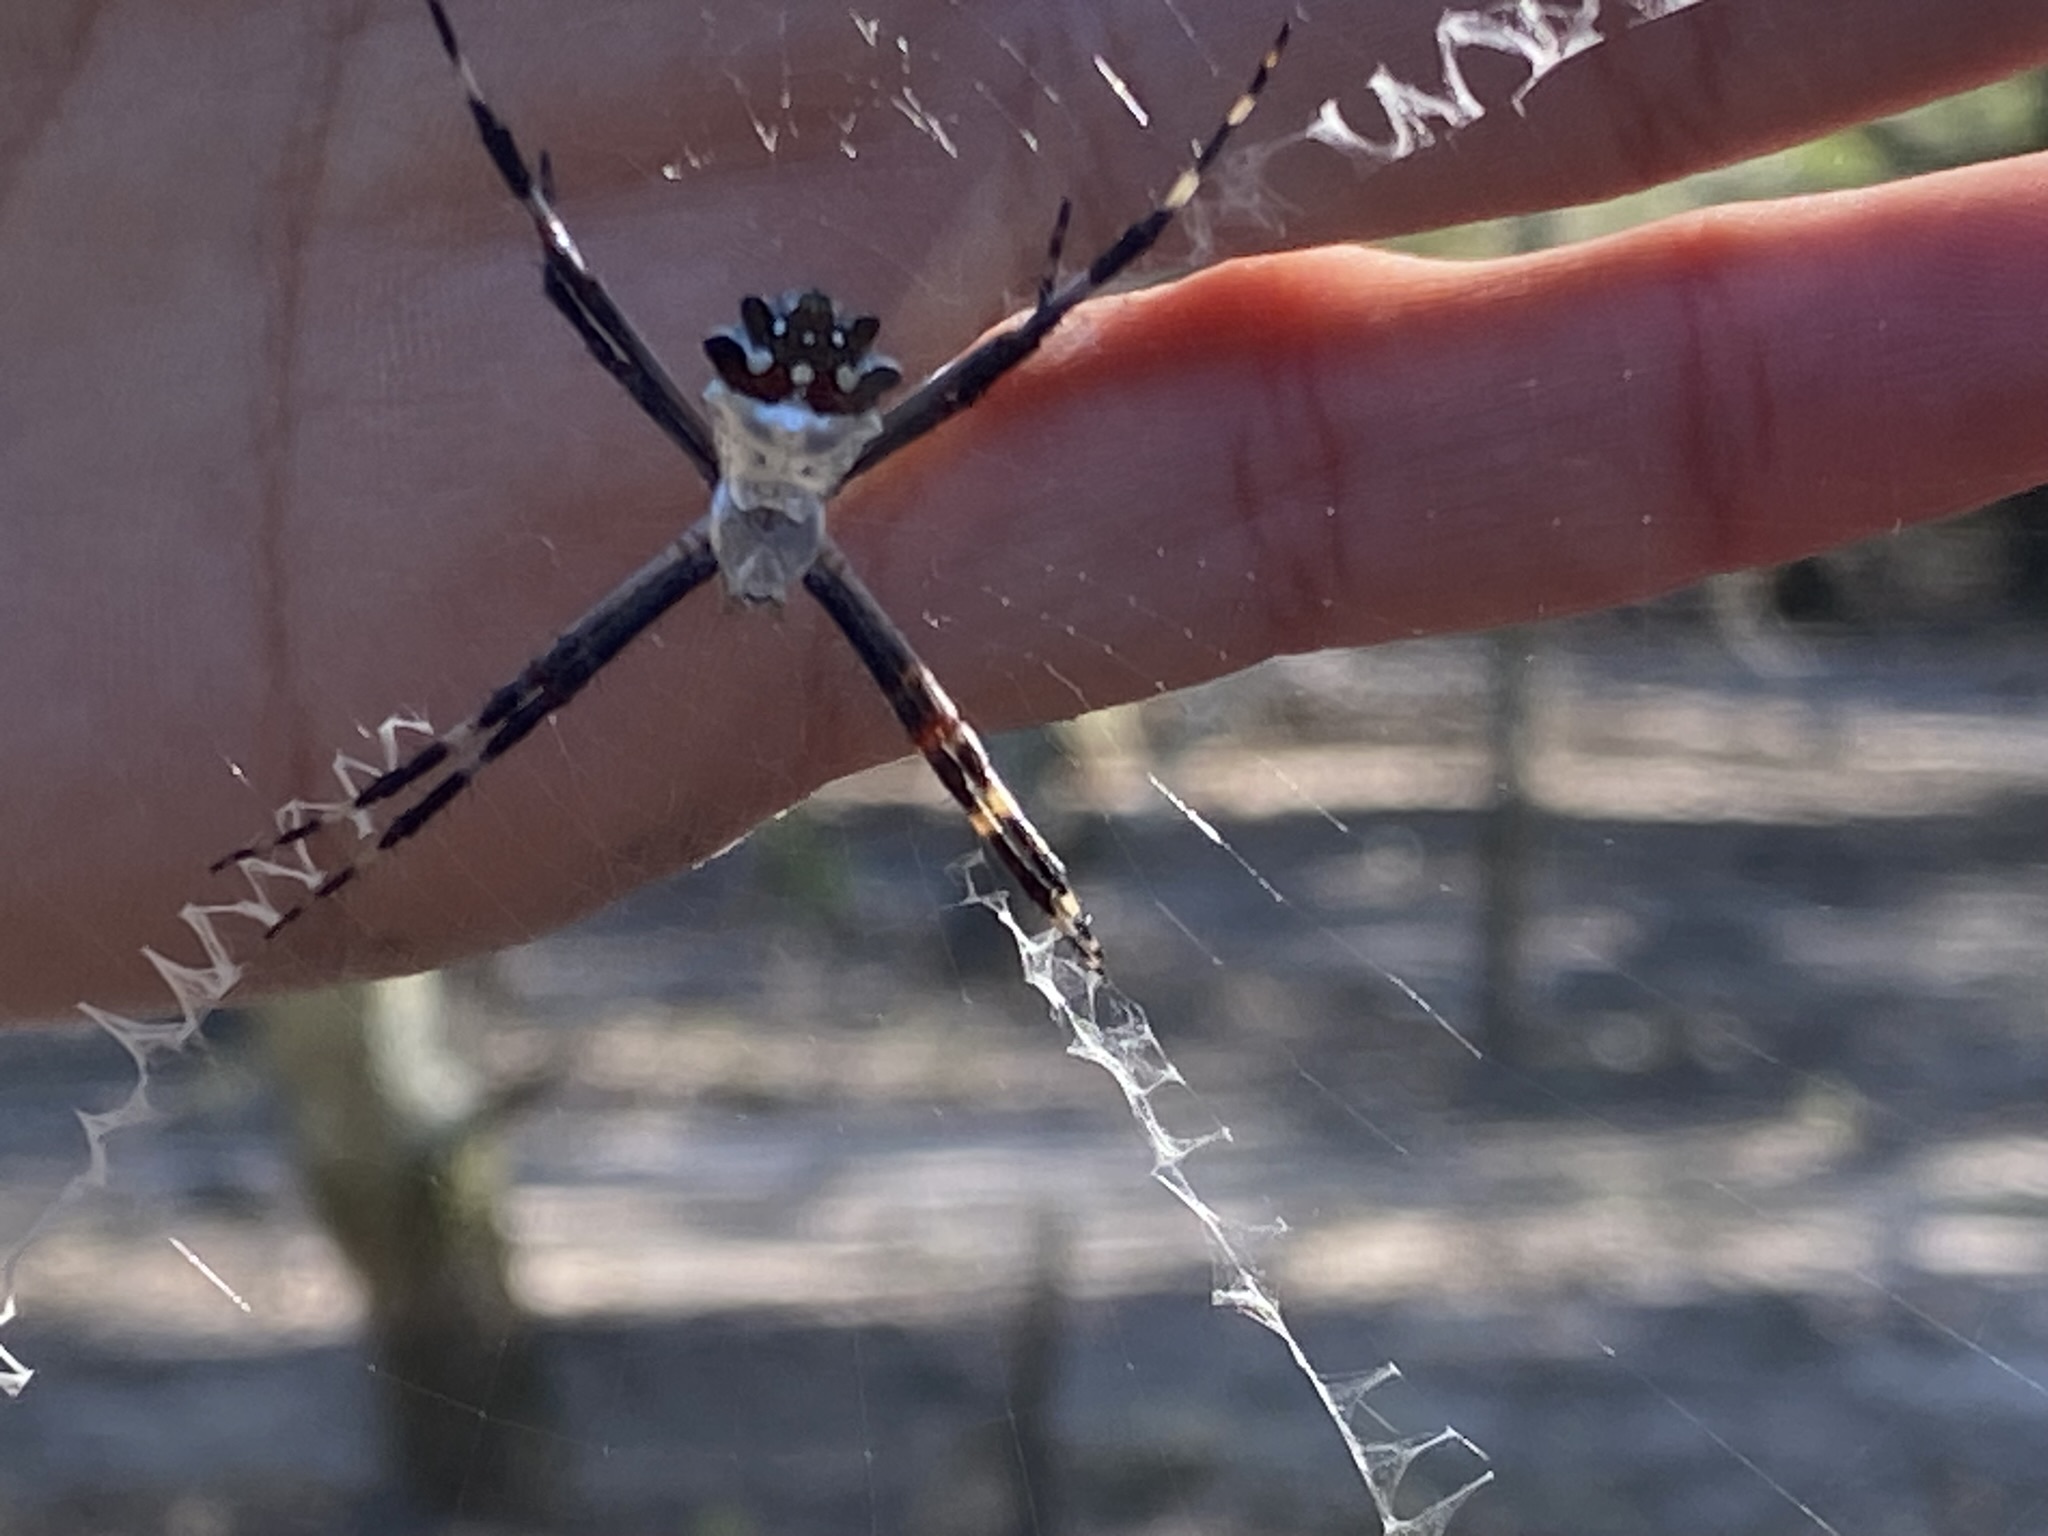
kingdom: Animalia
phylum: Arthropoda
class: Arachnida
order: Araneae
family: Araneidae
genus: Argiope
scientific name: Argiope argentata
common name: Orb weavers
